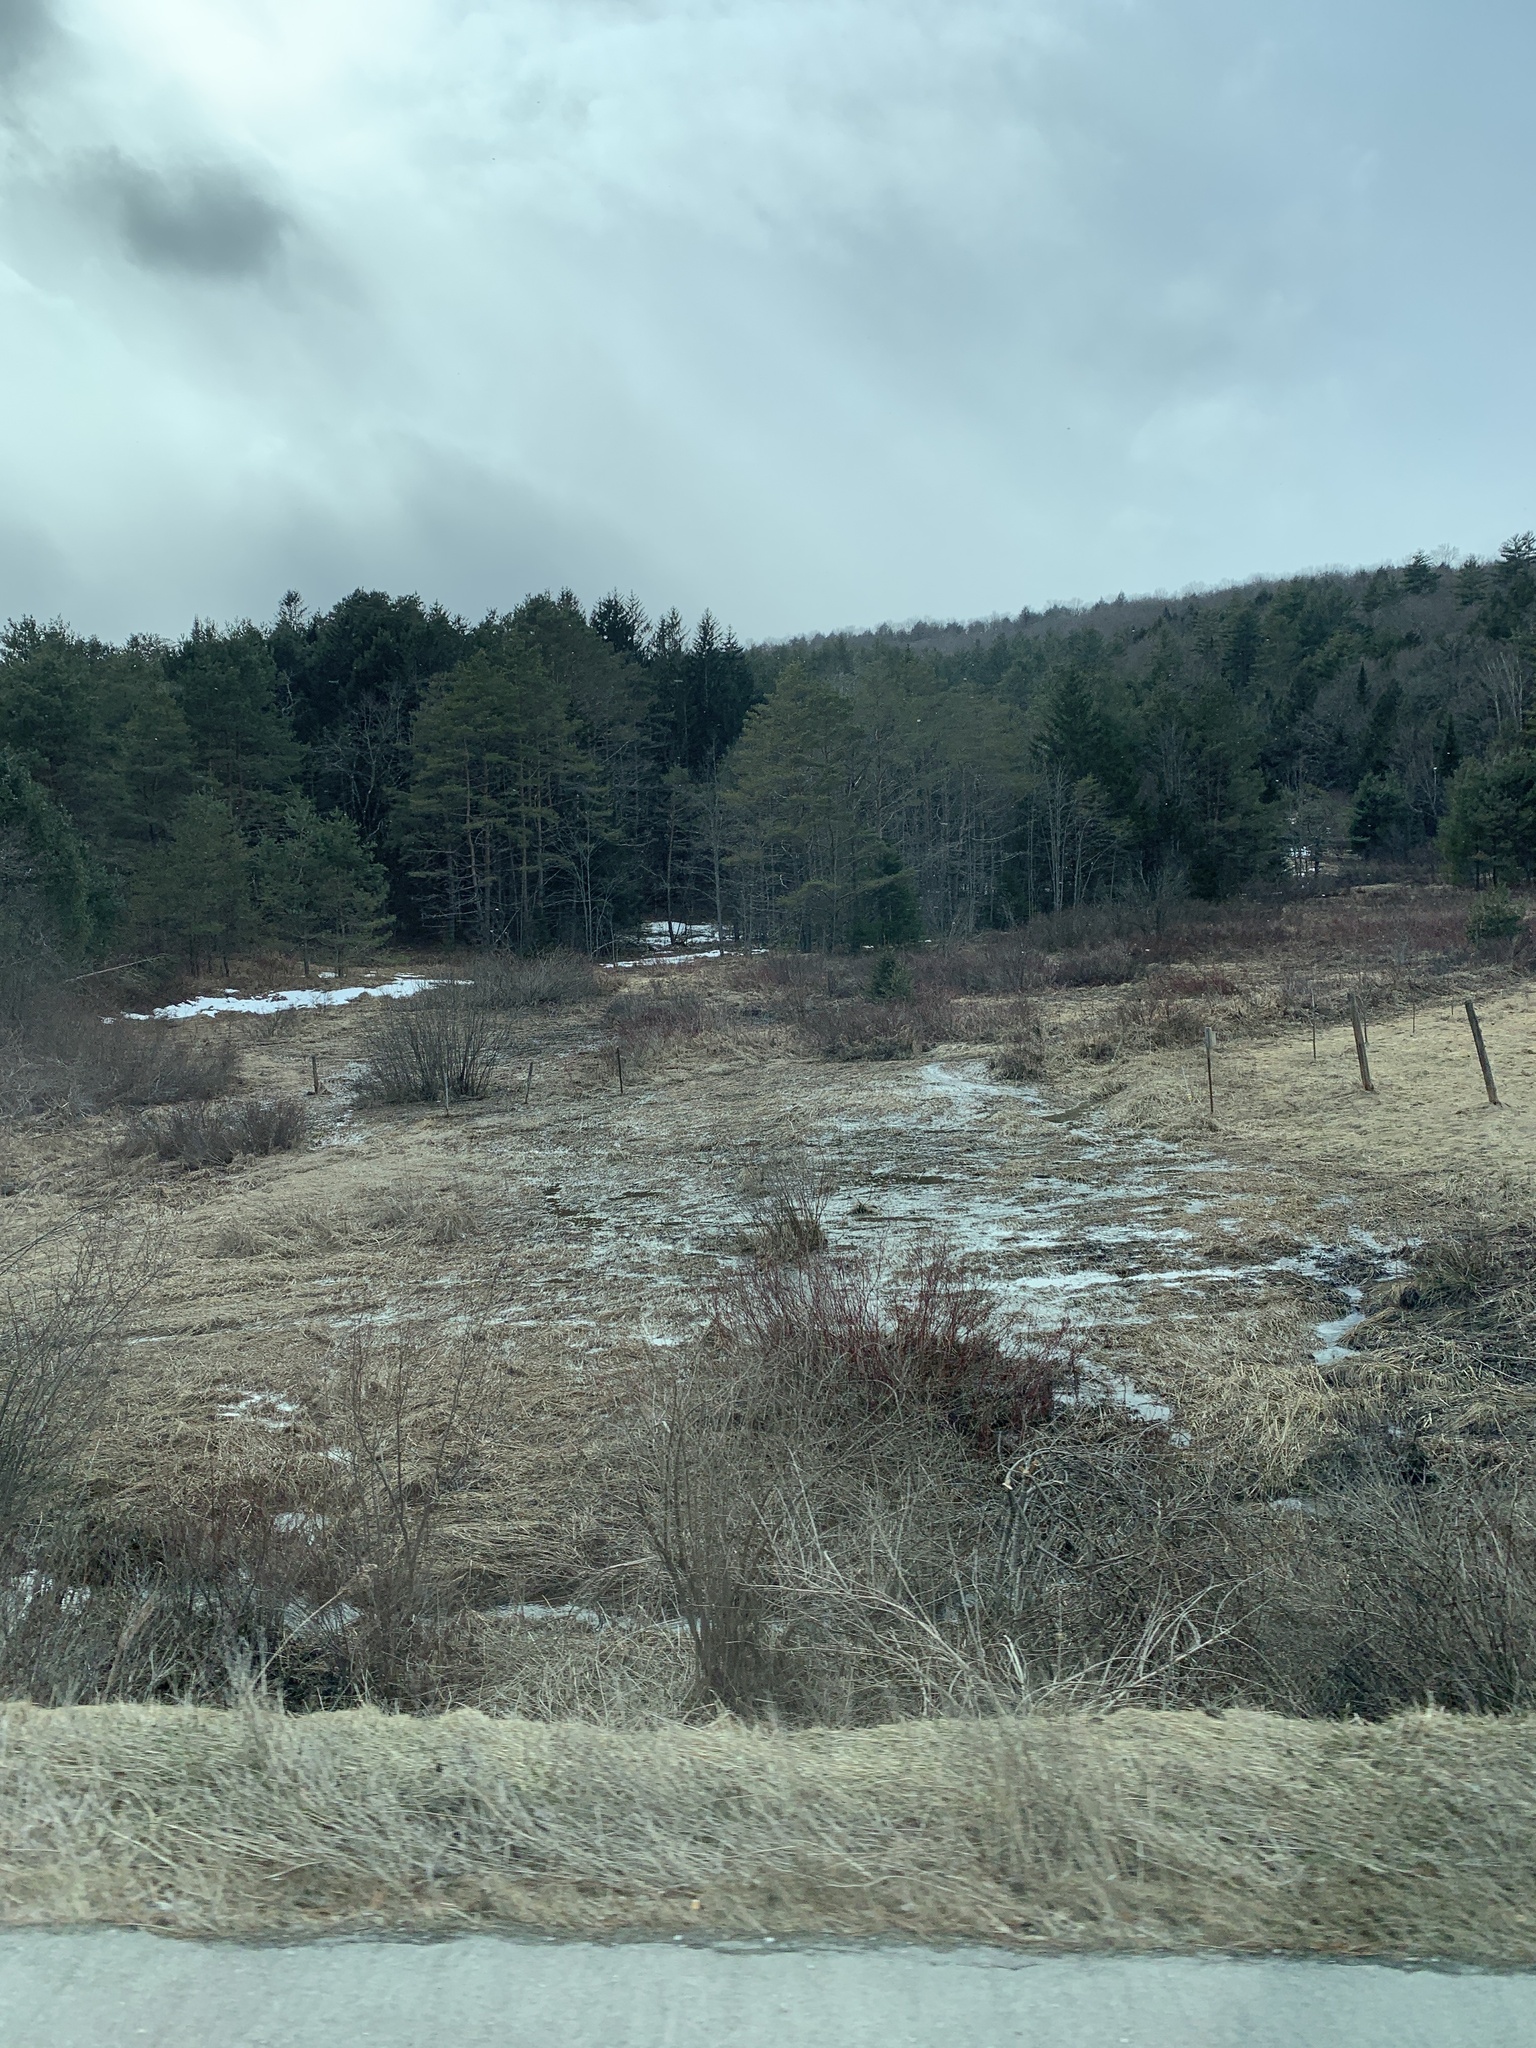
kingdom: Plantae
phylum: Tracheophyta
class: Pinopsida
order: Pinales
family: Pinaceae
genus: Pinus
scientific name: Pinus strobus
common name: Weymouth pine
